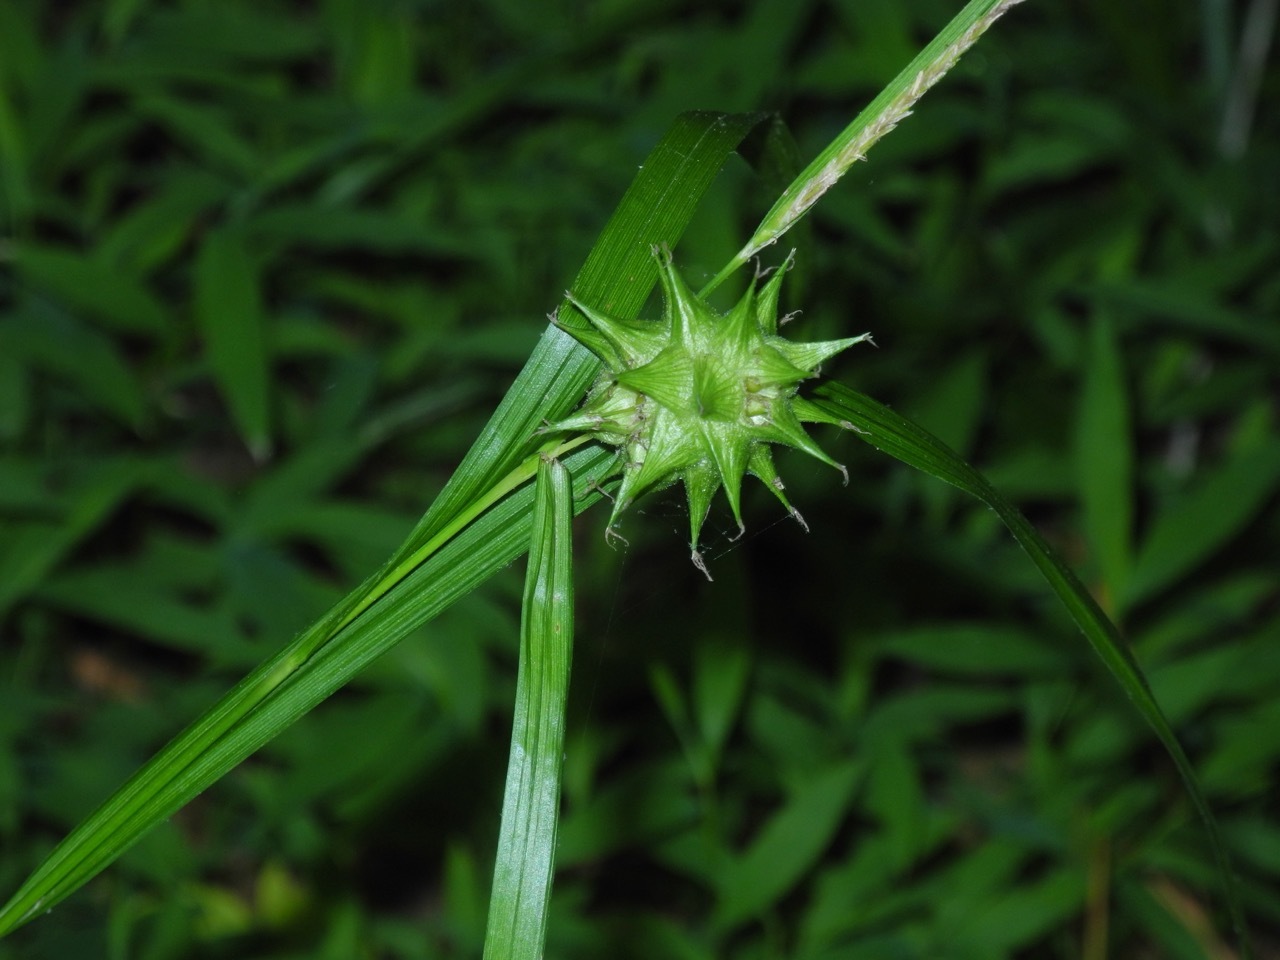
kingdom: Plantae
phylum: Tracheophyta
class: Liliopsida
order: Poales
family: Cyperaceae
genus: Carex
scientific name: Carex grayi
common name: Asa gray's sedge
